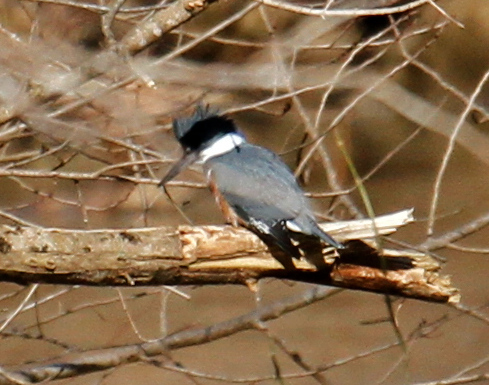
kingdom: Animalia
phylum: Chordata
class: Aves
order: Coraciiformes
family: Alcedinidae
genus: Megaceryle
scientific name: Megaceryle alcyon
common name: Belted kingfisher
